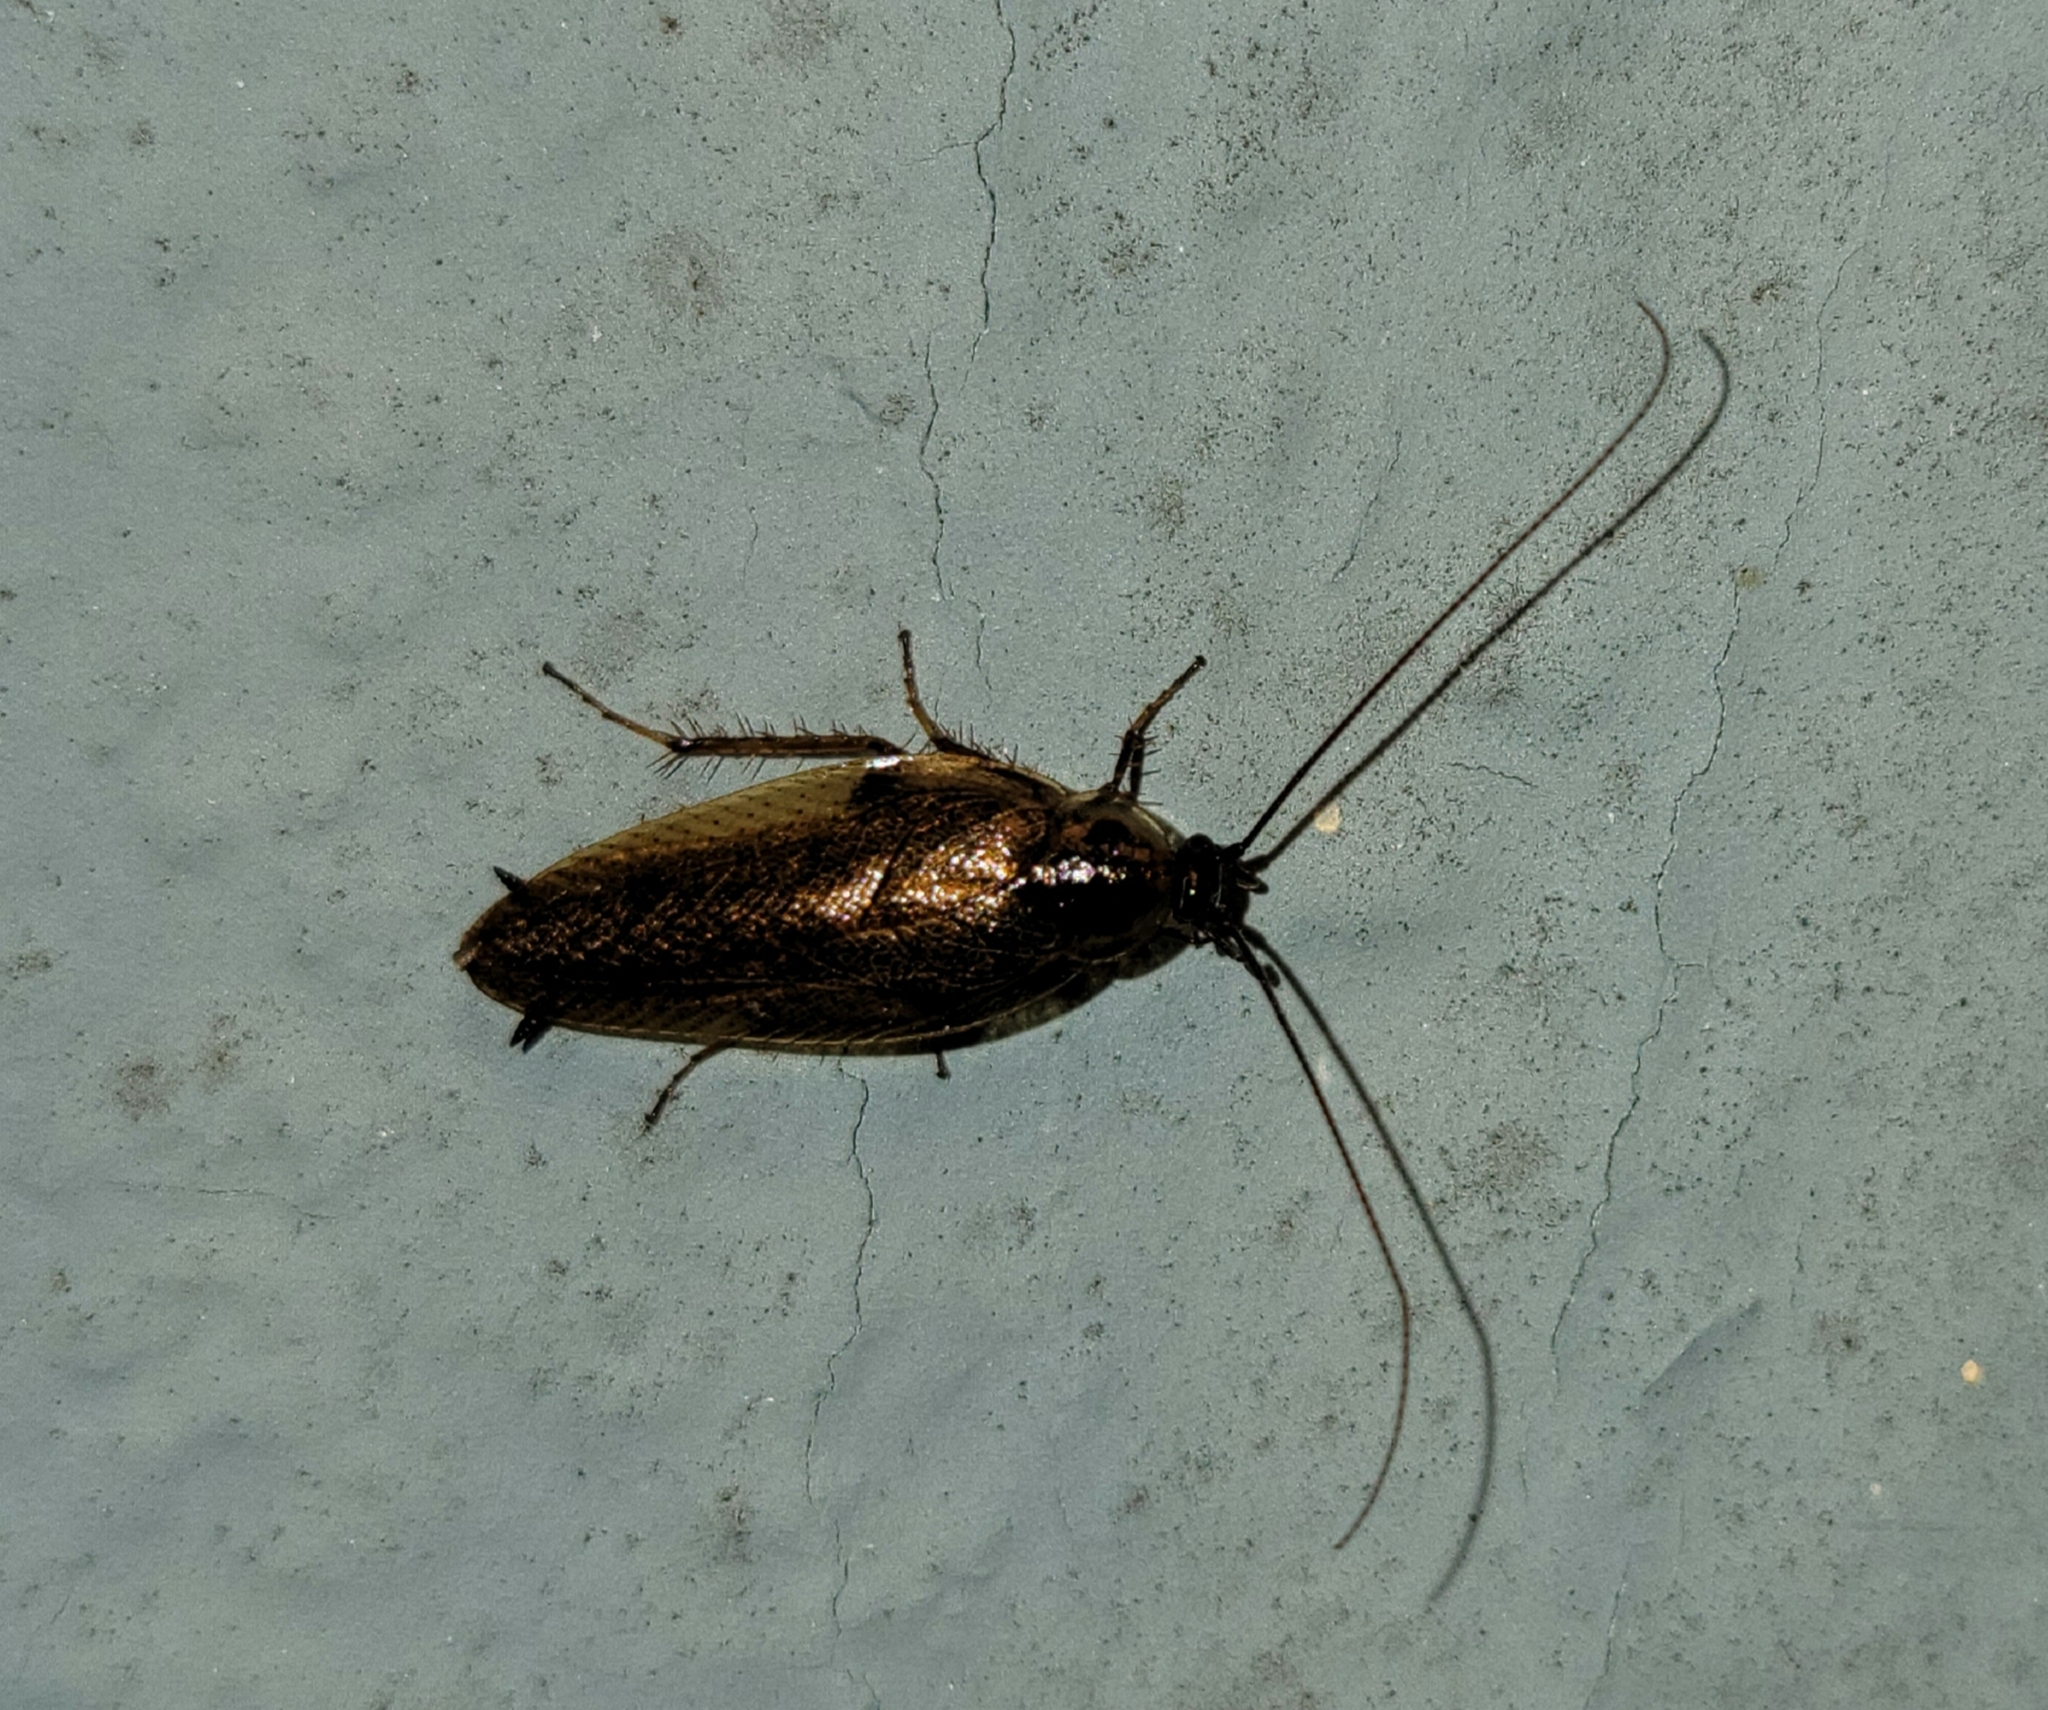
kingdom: Animalia
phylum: Arthropoda
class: Insecta
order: Blattodea
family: Ectobiidae
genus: Ectobius
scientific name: Ectobius lapponicus
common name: Dusky cockroach
